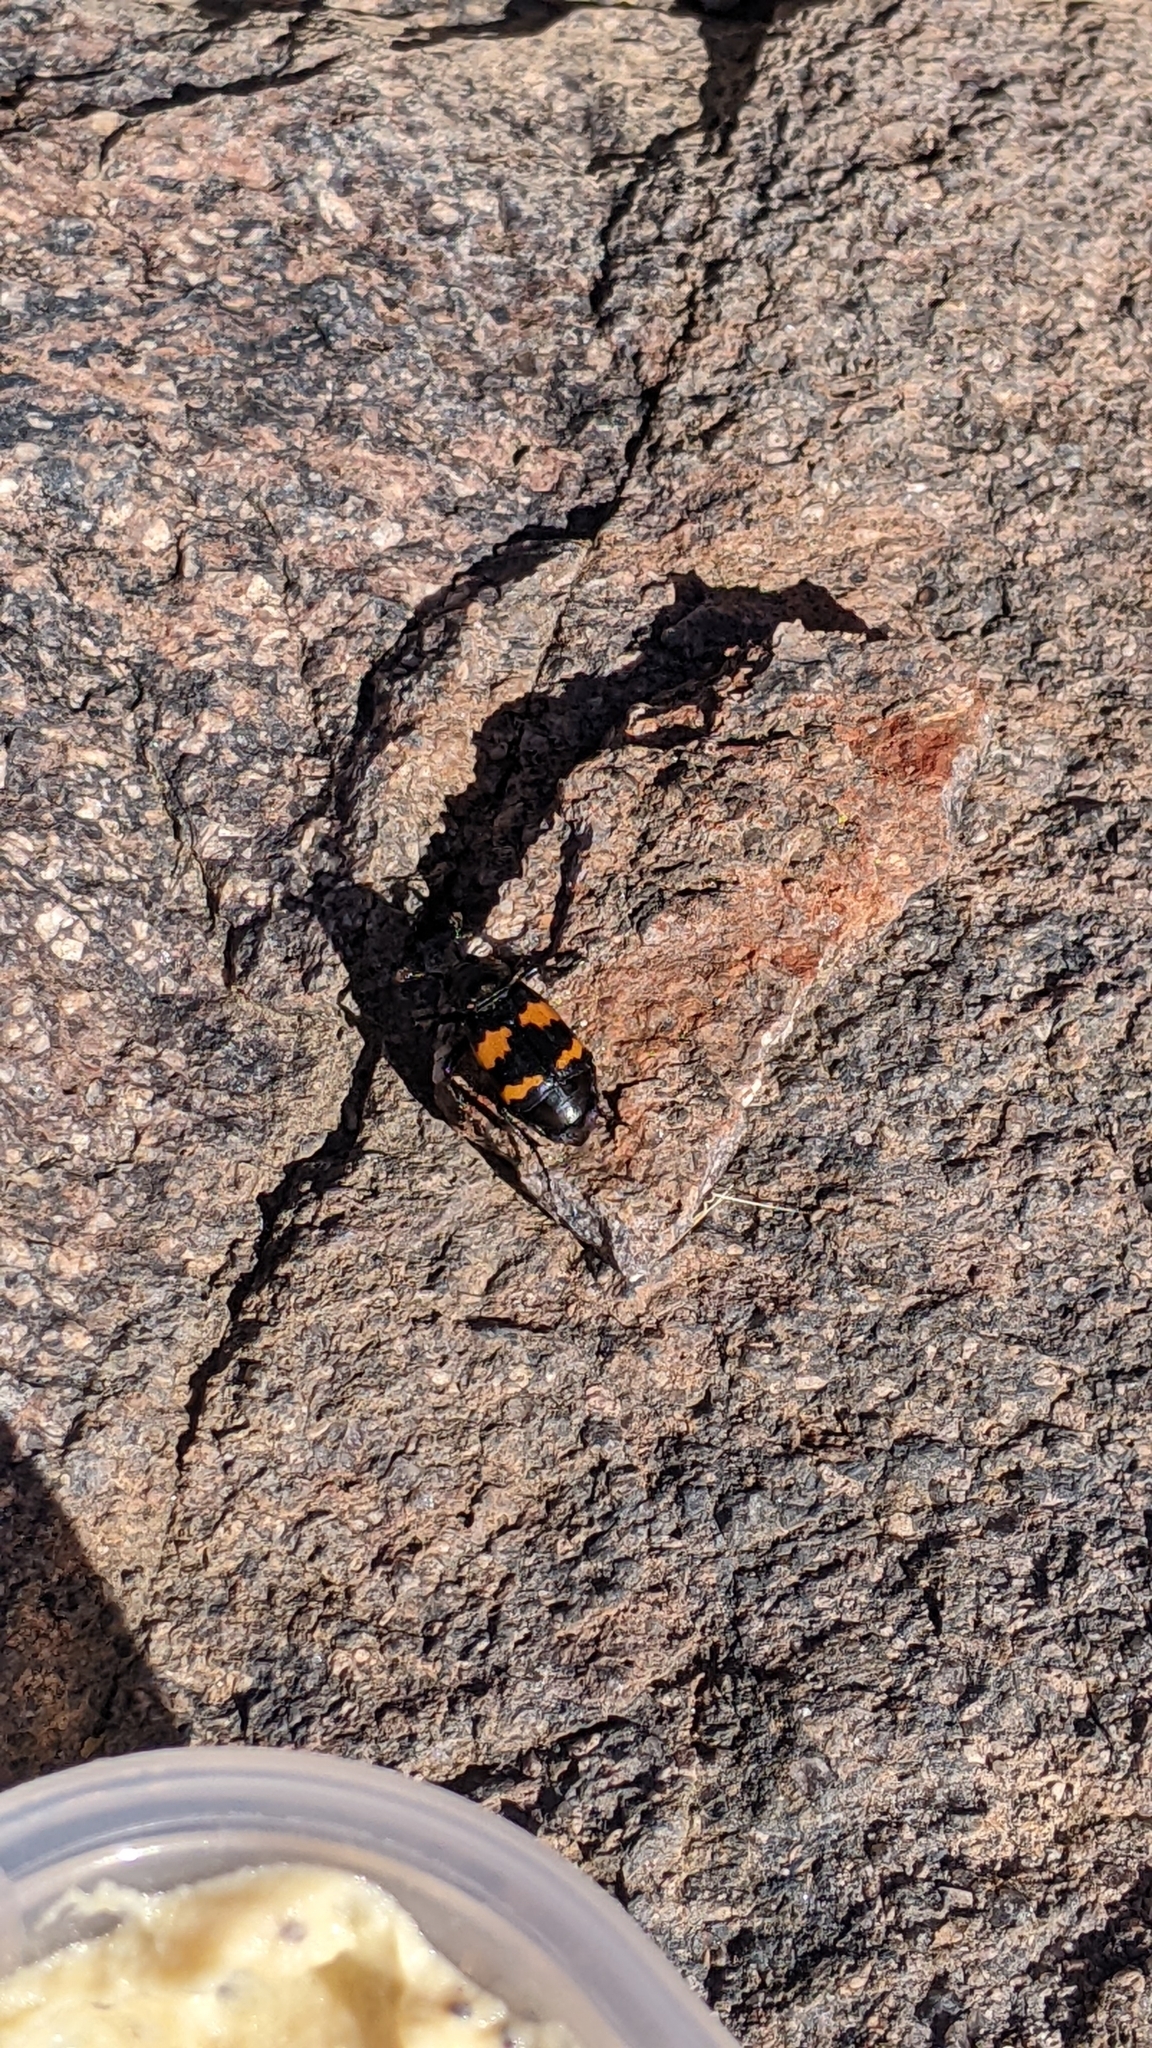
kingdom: Animalia
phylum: Arthropoda
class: Insecta
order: Coleoptera
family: Staphylinidae
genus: Nicrophorus
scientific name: Nicrophorus tomentosus
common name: Tomentose burying beetle
